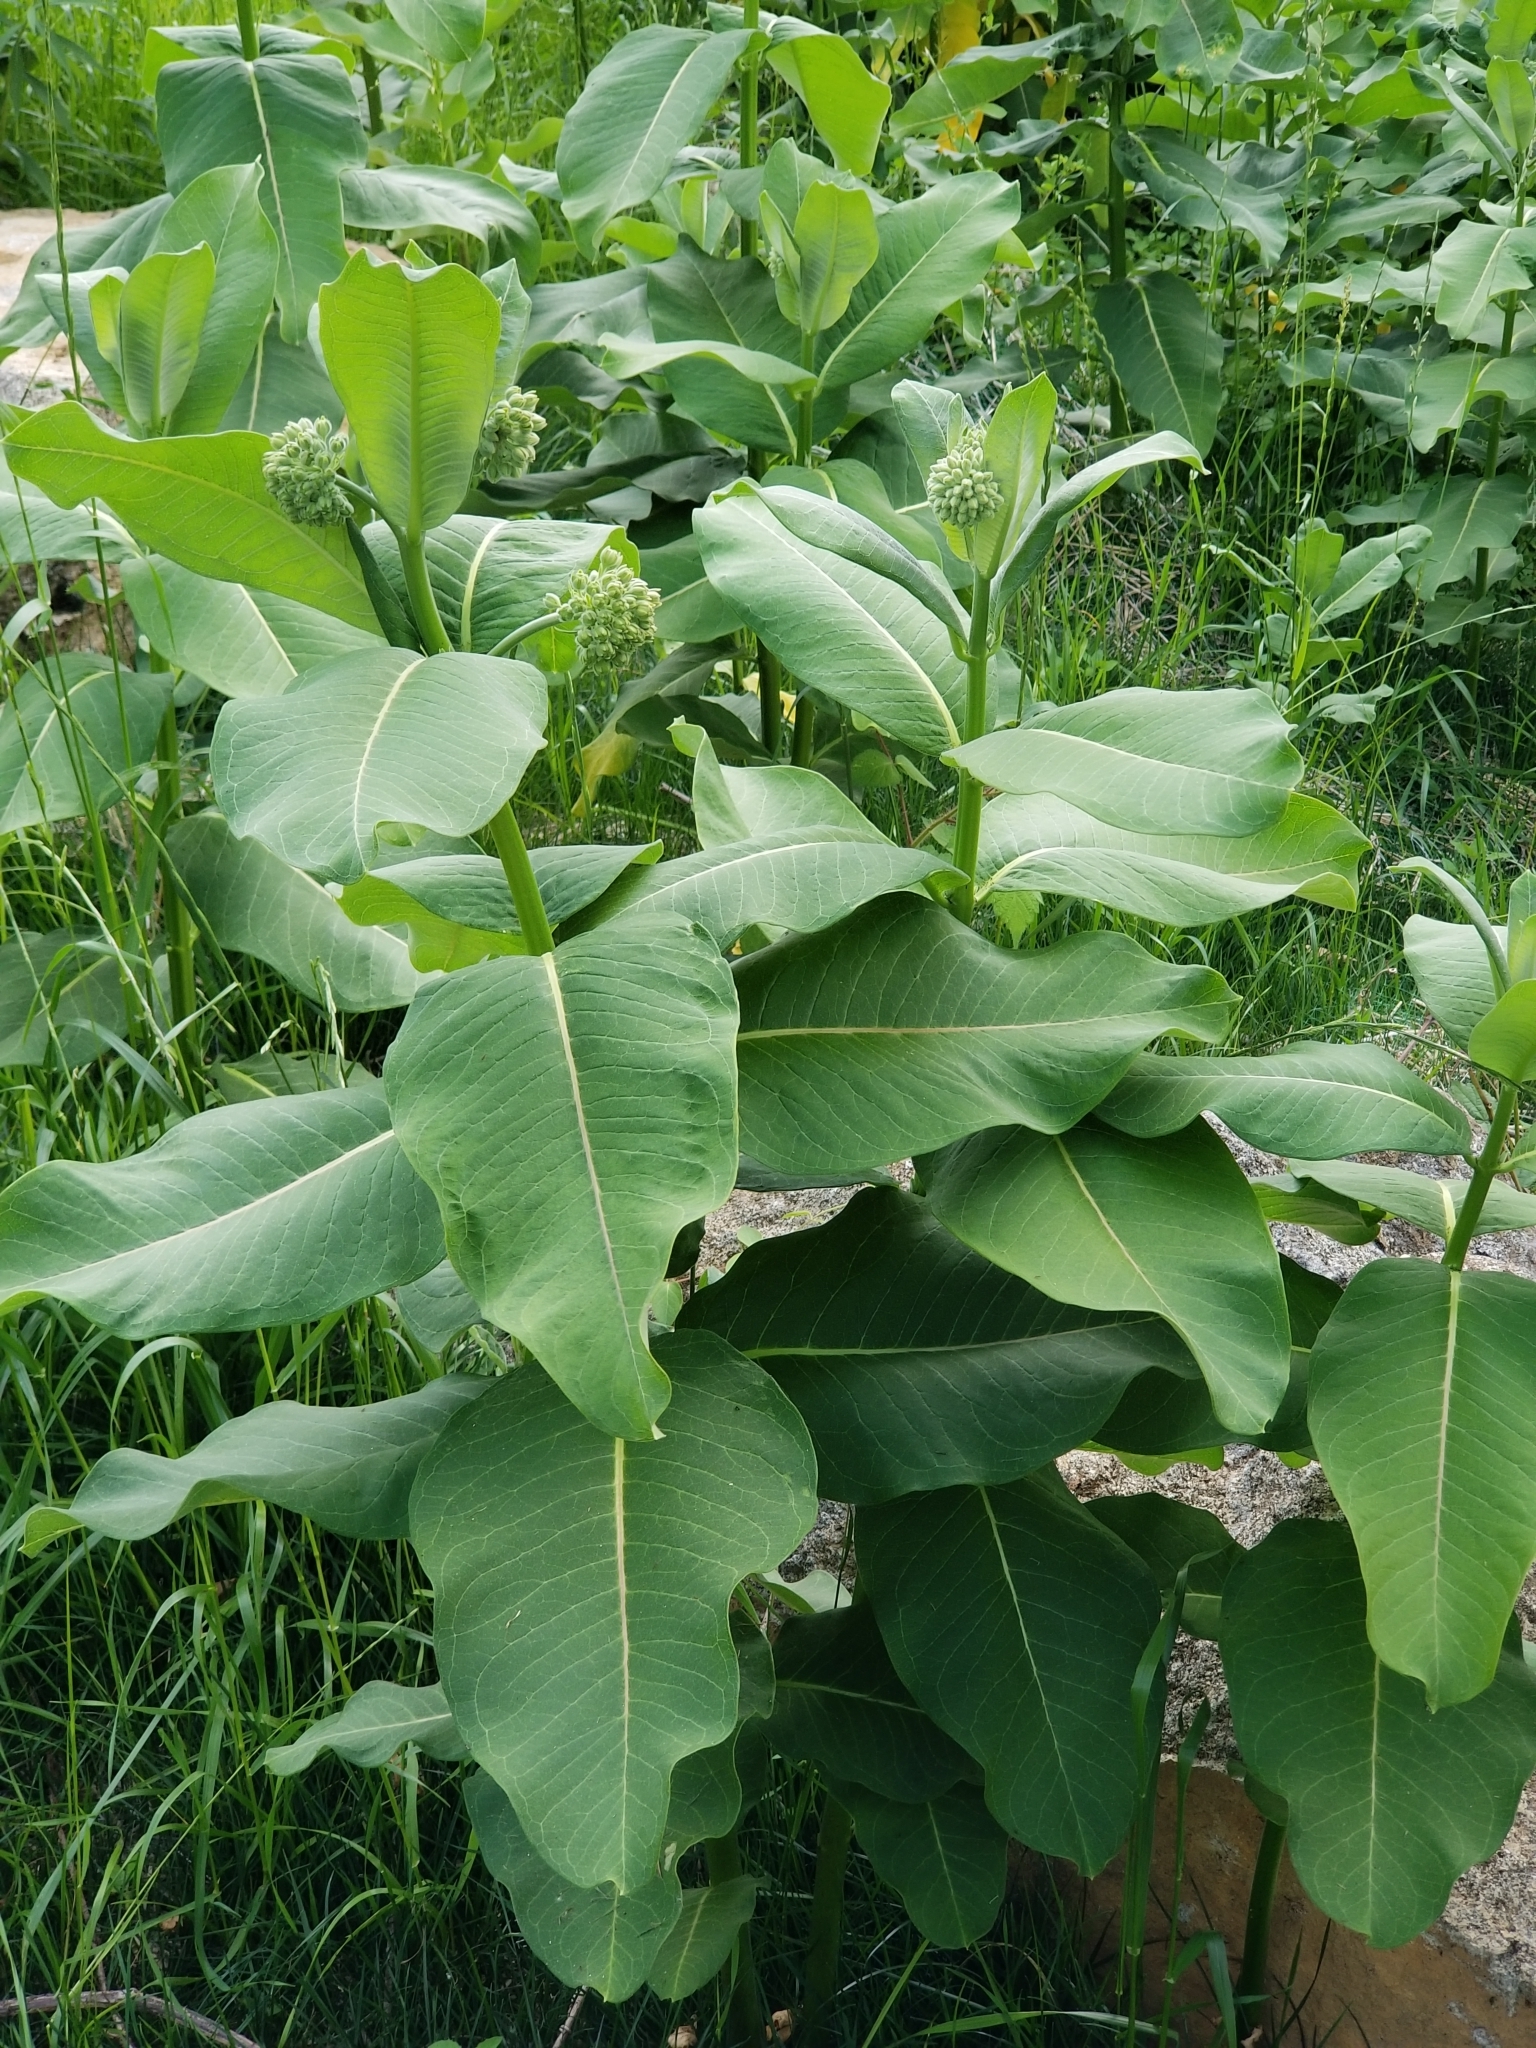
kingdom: Plantae
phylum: Tracheophyta
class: Magnoliopsida
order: Gentianales
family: Apocynaceae
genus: Asclepias
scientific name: Asclepias syriaca
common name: Common milkweed
